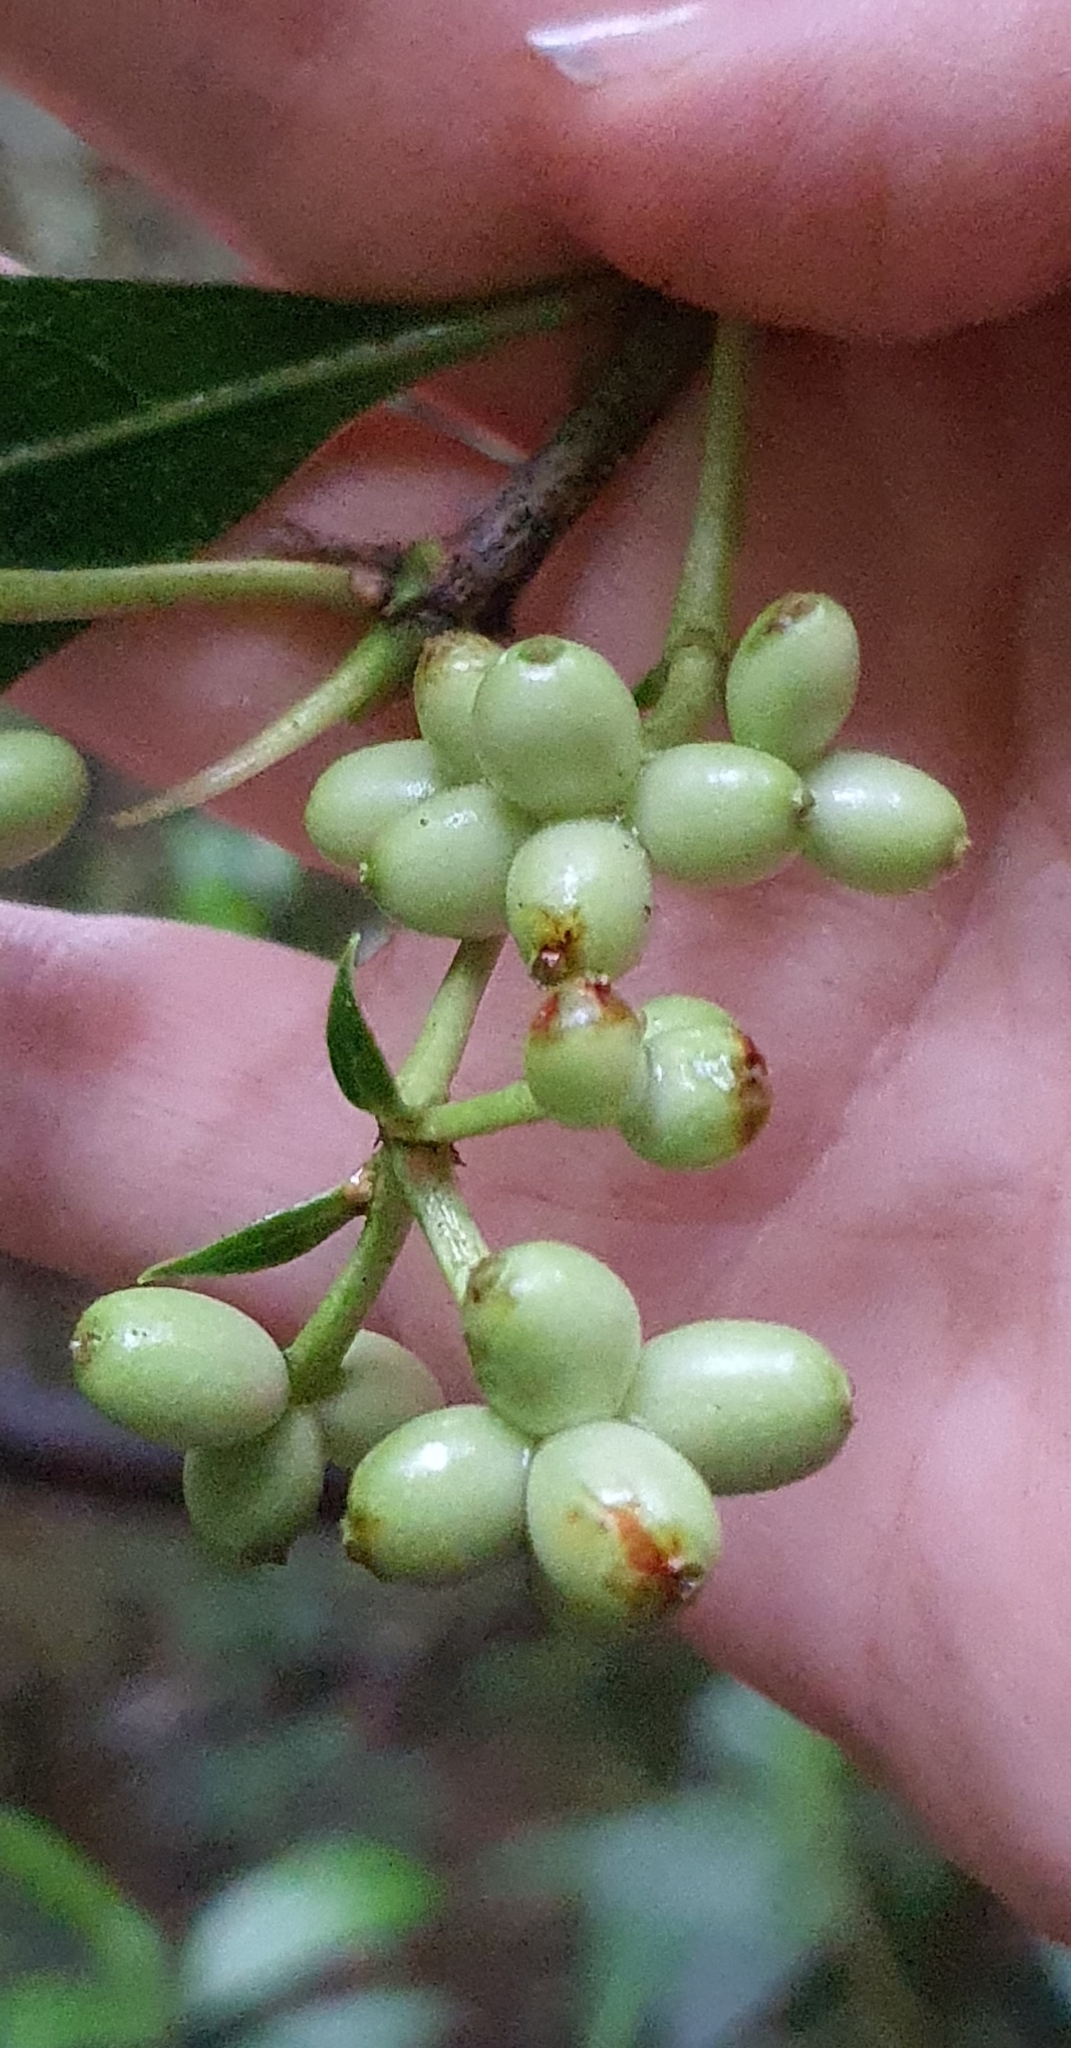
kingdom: Plantae
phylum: Tracheophyta
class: Magnoliopsida
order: Gentianales
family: Rubiaceae
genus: Coprosma
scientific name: Coprosma lucida
